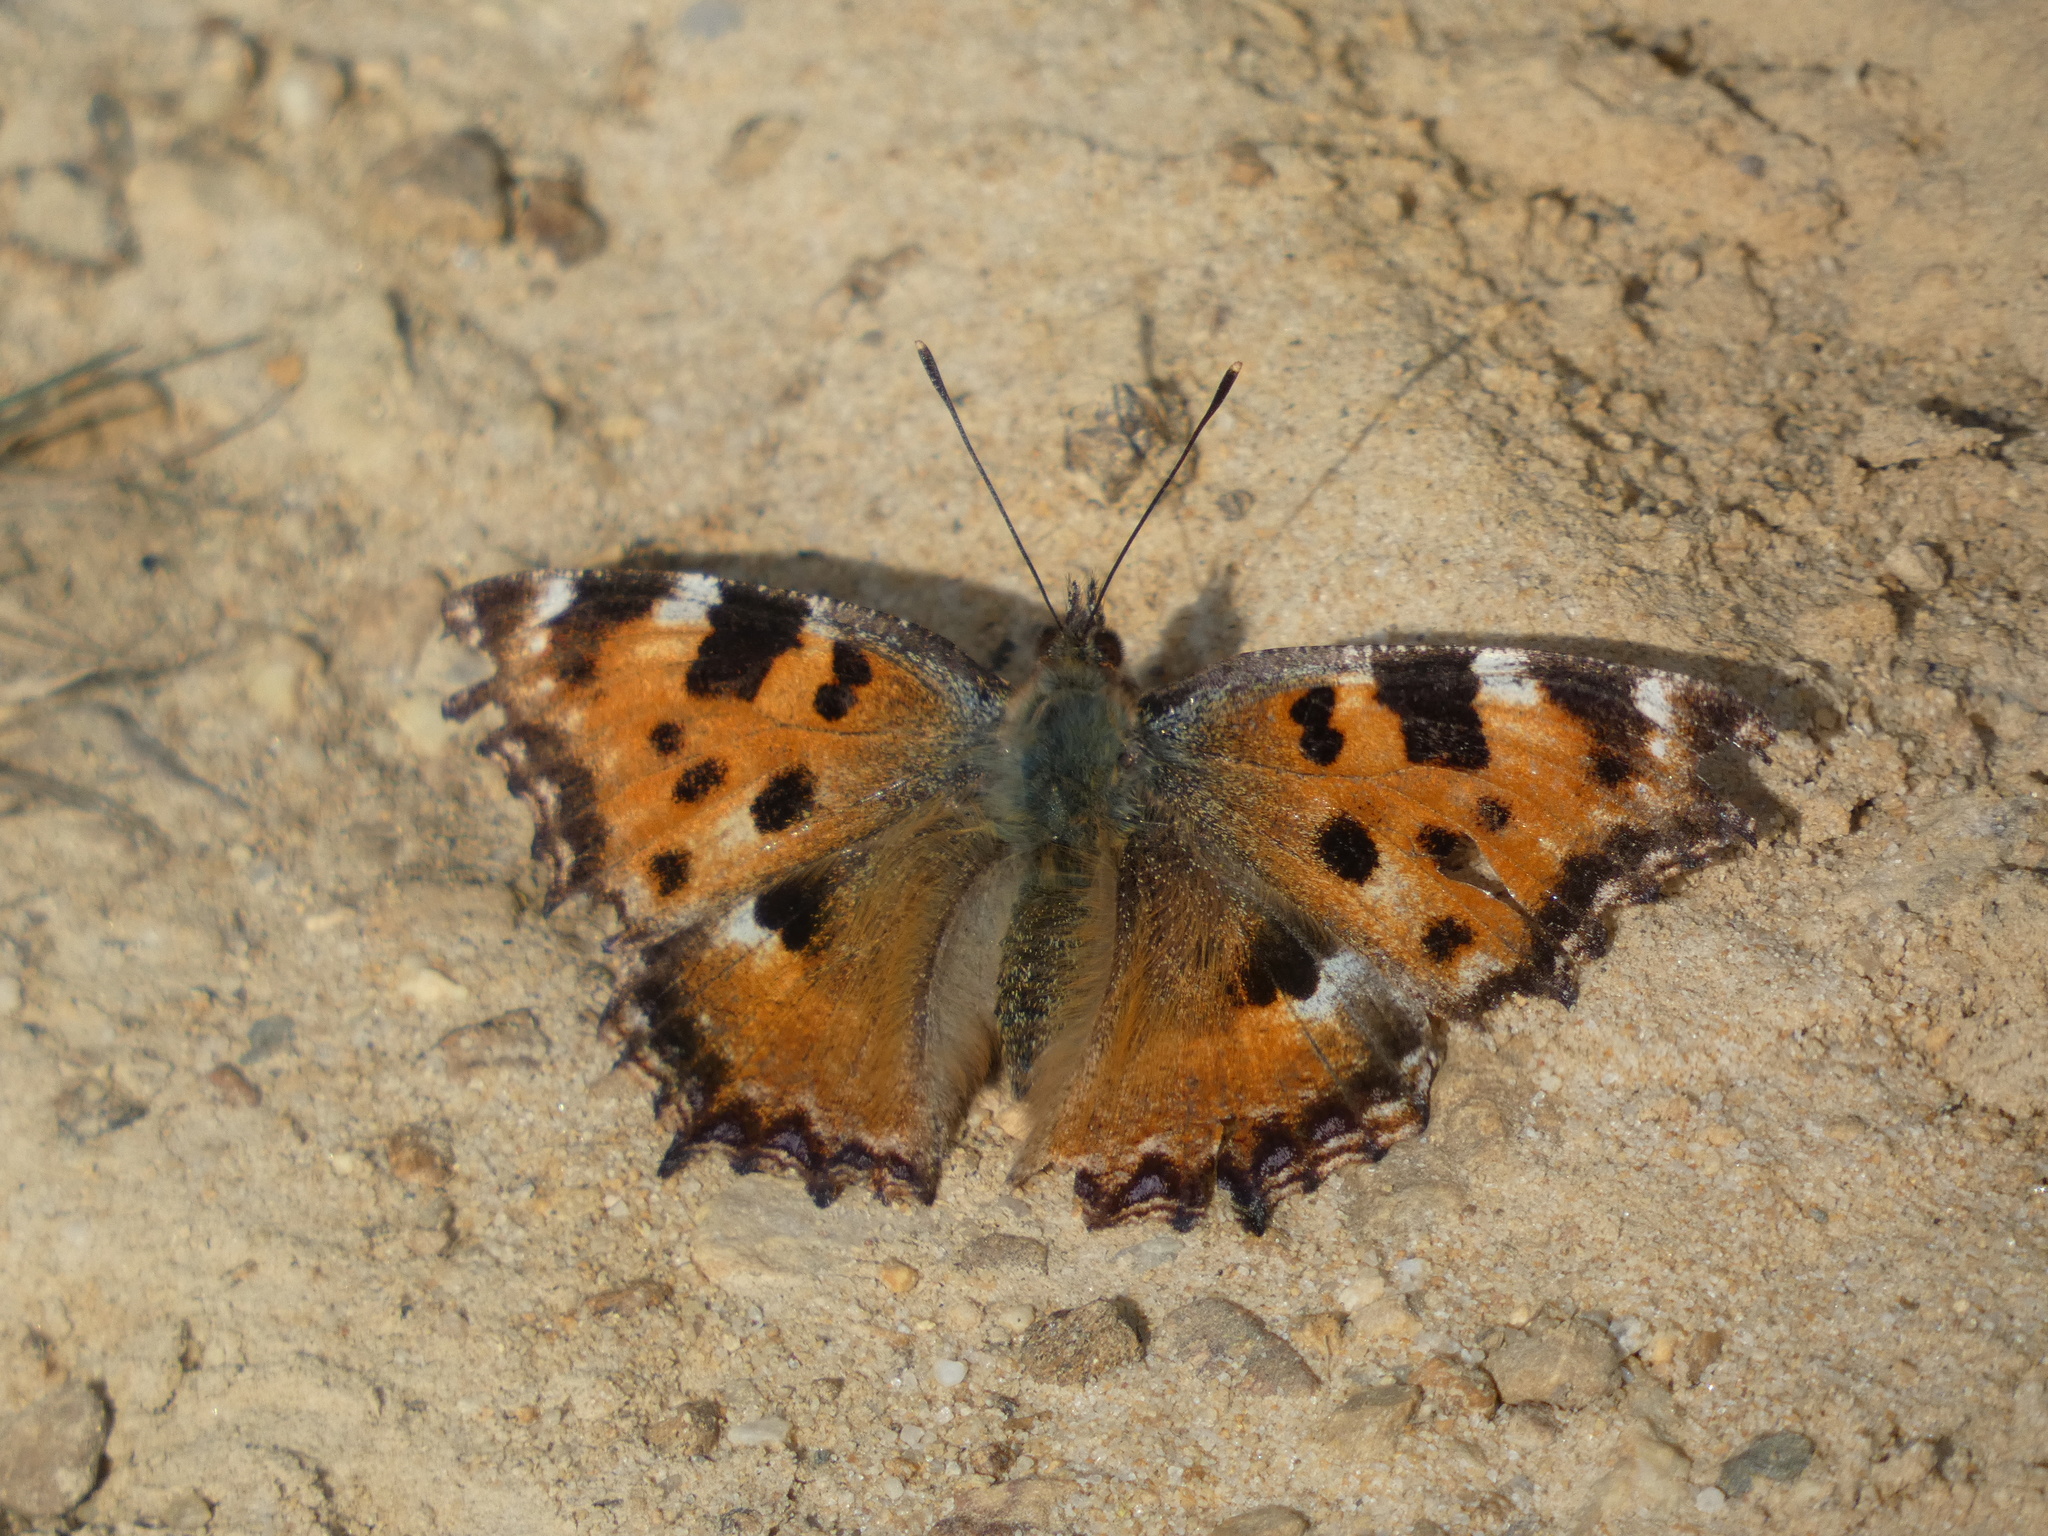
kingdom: Animalia
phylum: Arthropoda
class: Insecta
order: Lepidoptera
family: Nymphalidae
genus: Nymphalis
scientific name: Nymphalis polychloros
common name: Large tortoiseshell
